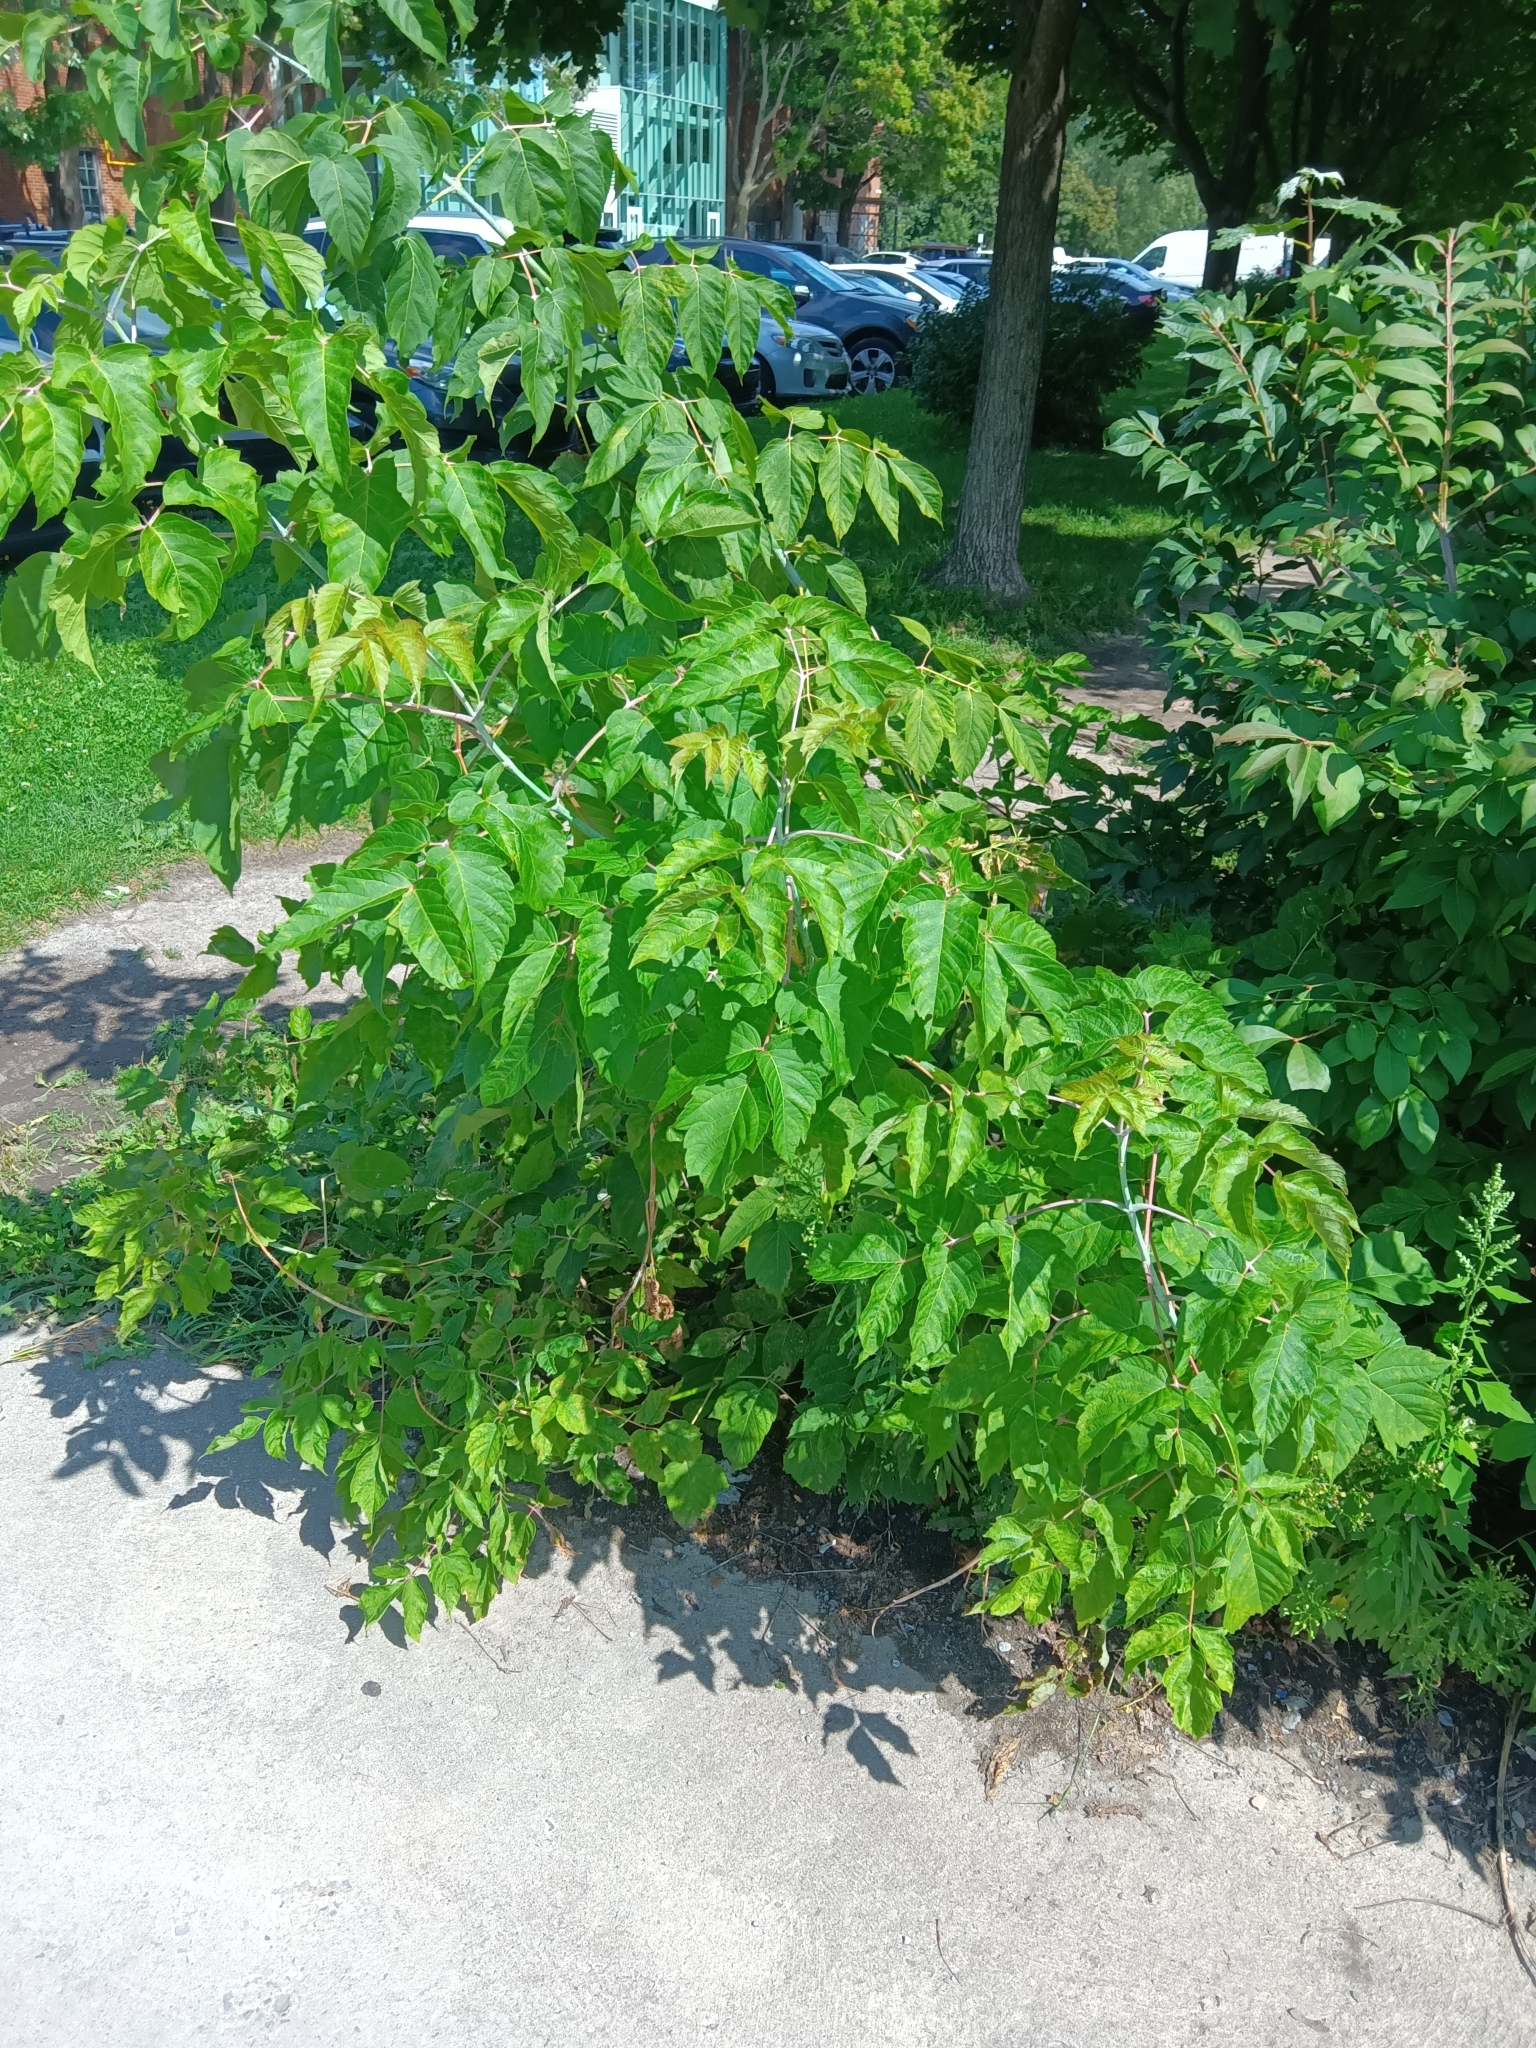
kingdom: Plantae
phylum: Tracheophyta
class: Magnoliopsida
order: Sapindales
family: Sapindaceae
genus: Acer
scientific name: Acer negundo
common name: Ashleaf maple
